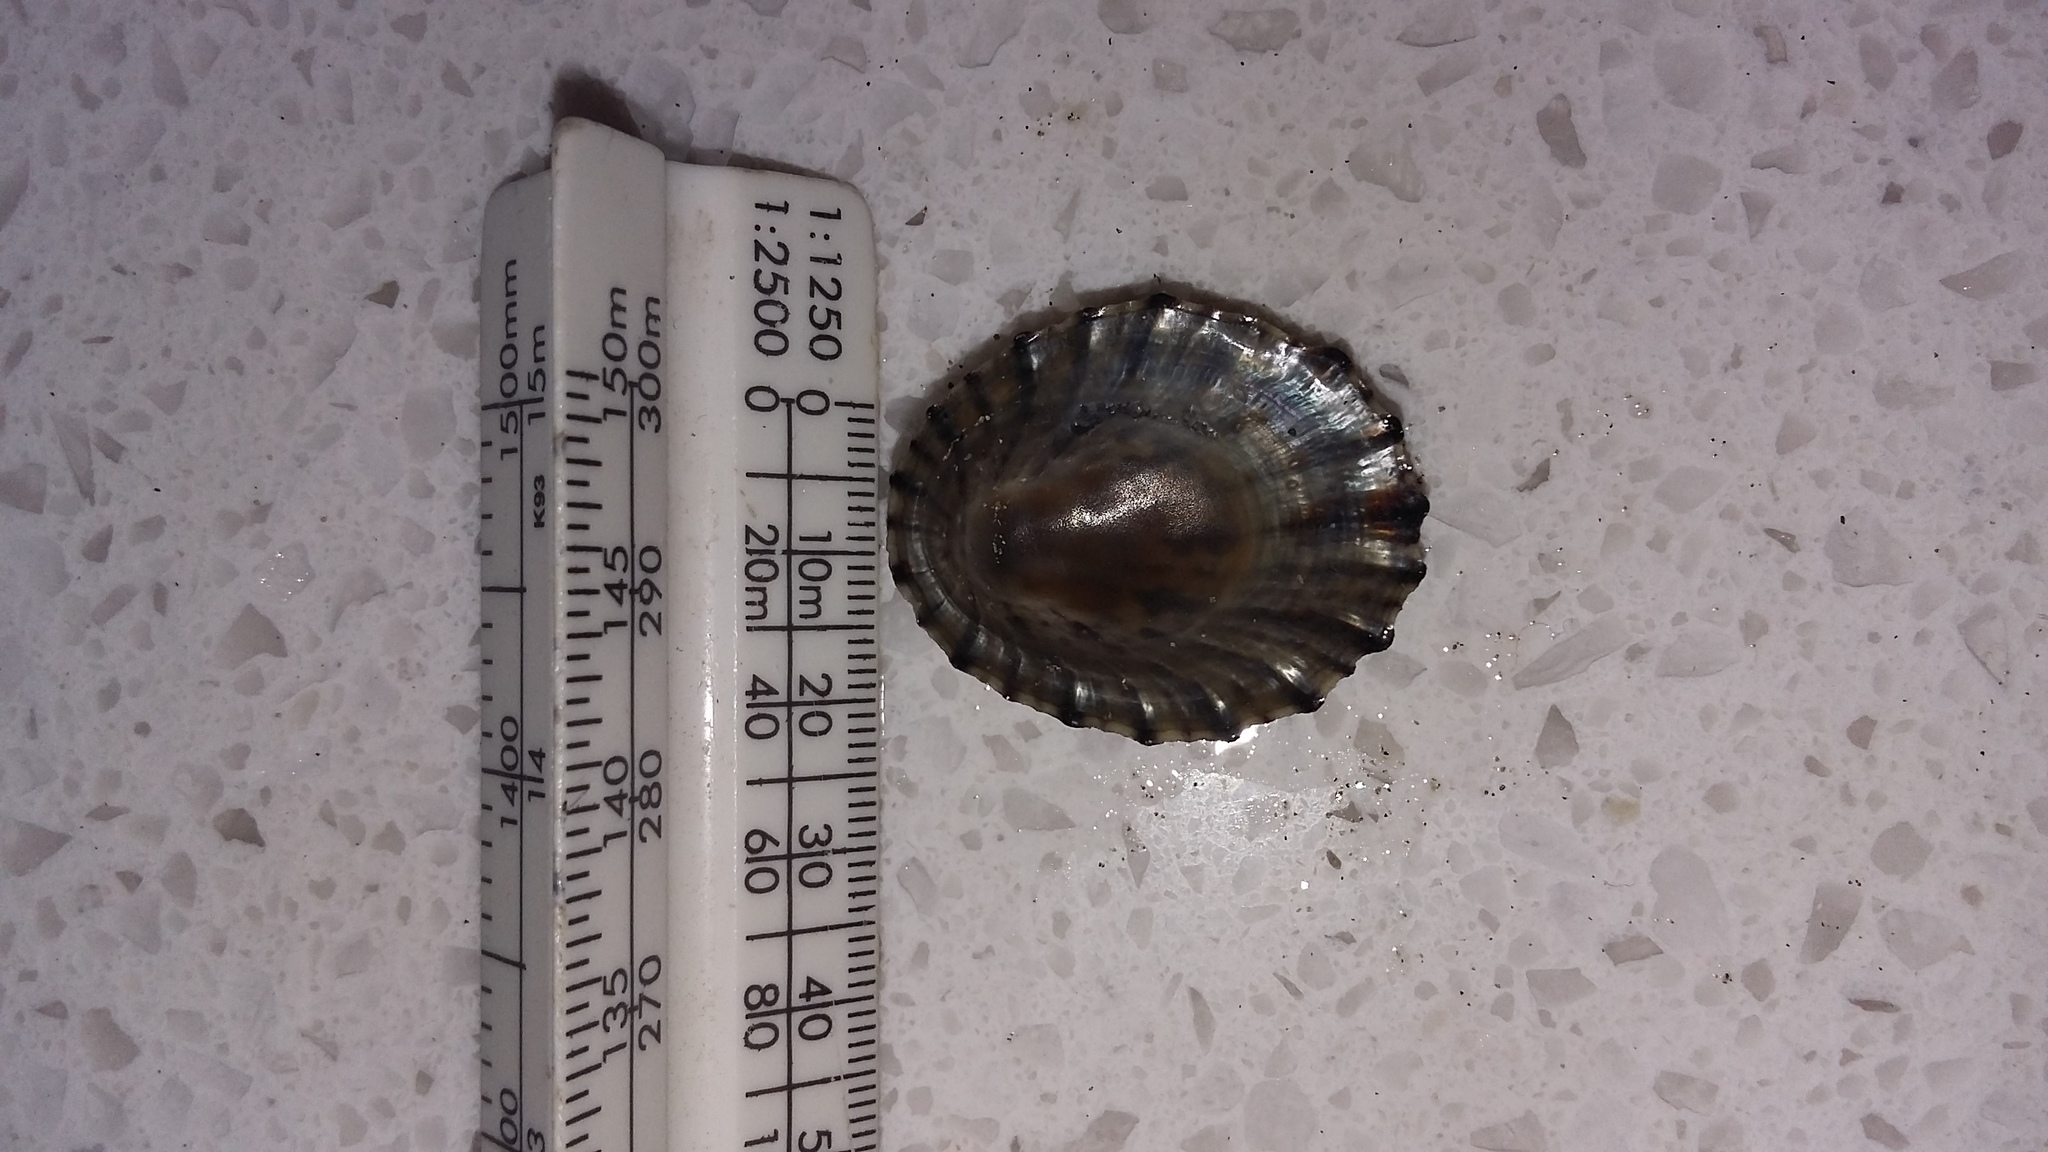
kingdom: Animalia
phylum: Mollusca
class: Gastropoda
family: Nacellidae
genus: Cellana
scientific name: Cellana radians
